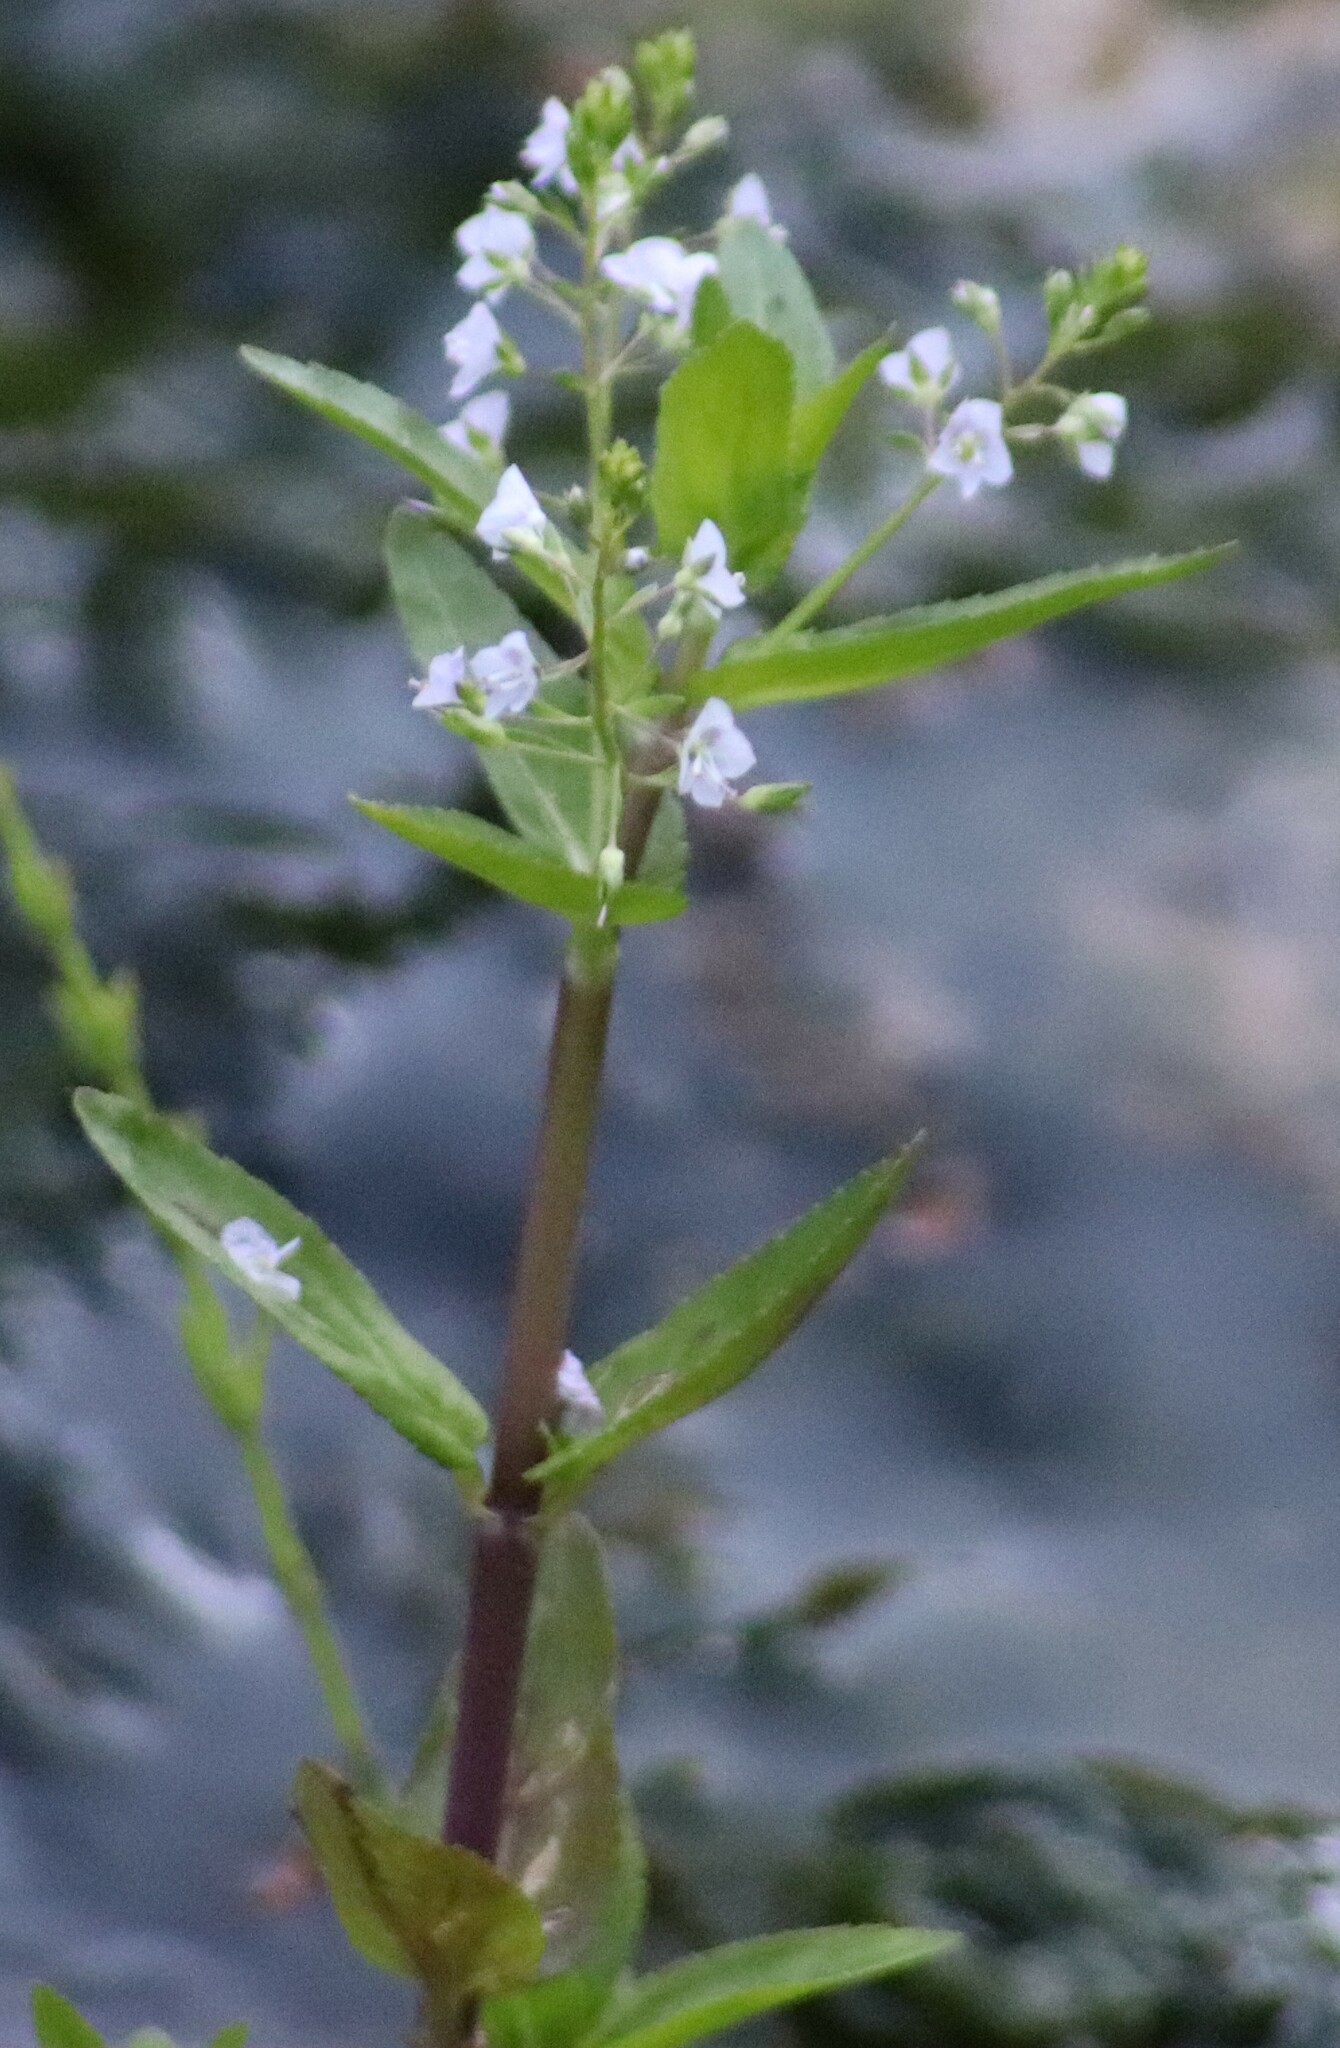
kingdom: Plantae
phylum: Tracheophyta
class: Magnoliopsida
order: Lamiales
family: Plantaginaceae
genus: Veronica
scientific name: Veronica americana
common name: American brooklime
